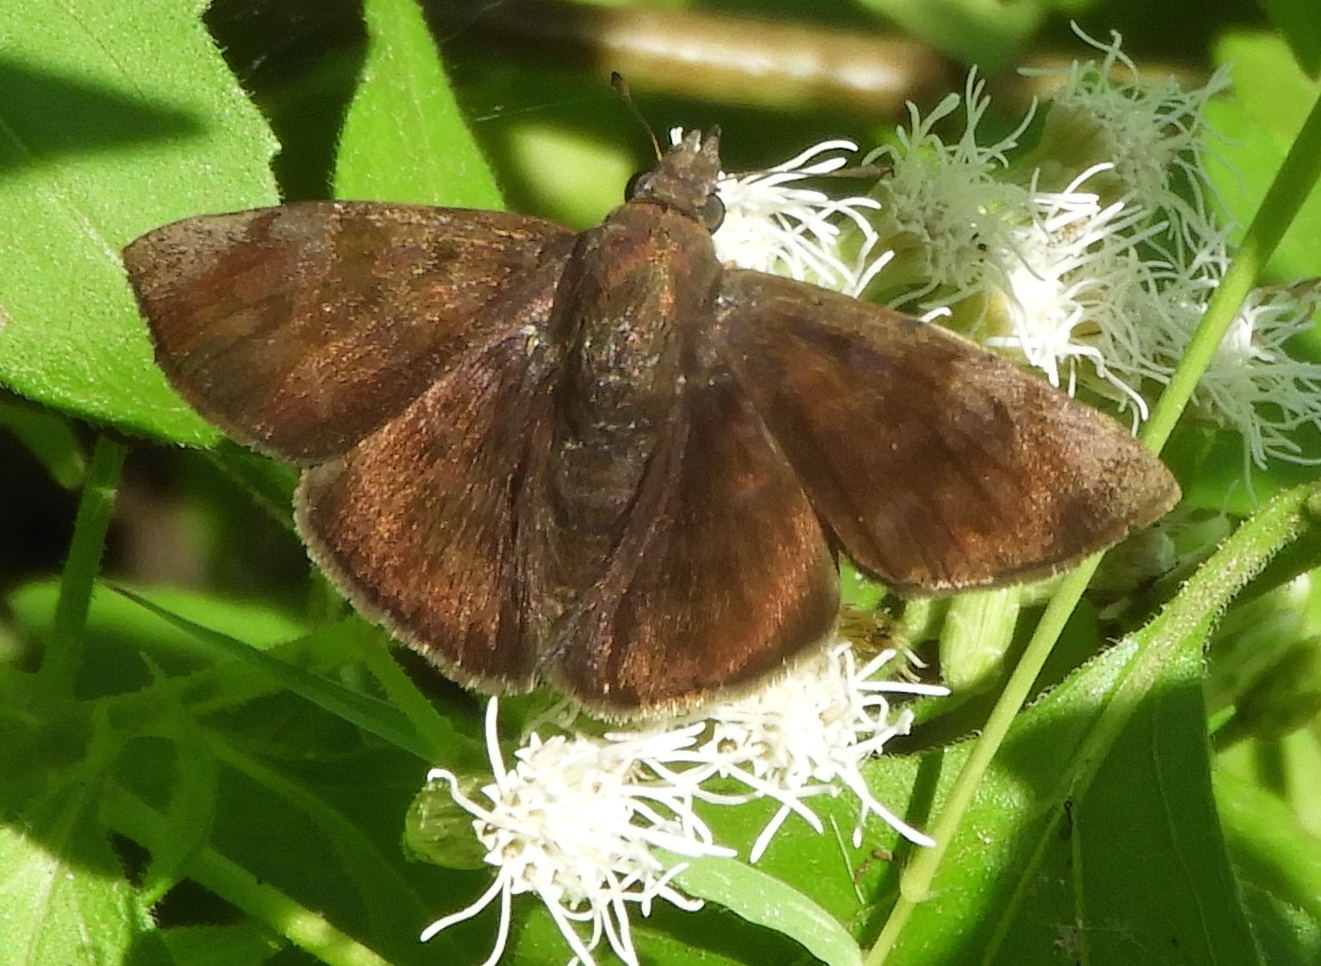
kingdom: Animalia
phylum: Arthropoda
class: Insecta
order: Lepidoptera
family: Hesperiidae
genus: Pellicia
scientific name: Pellicia costimacula
